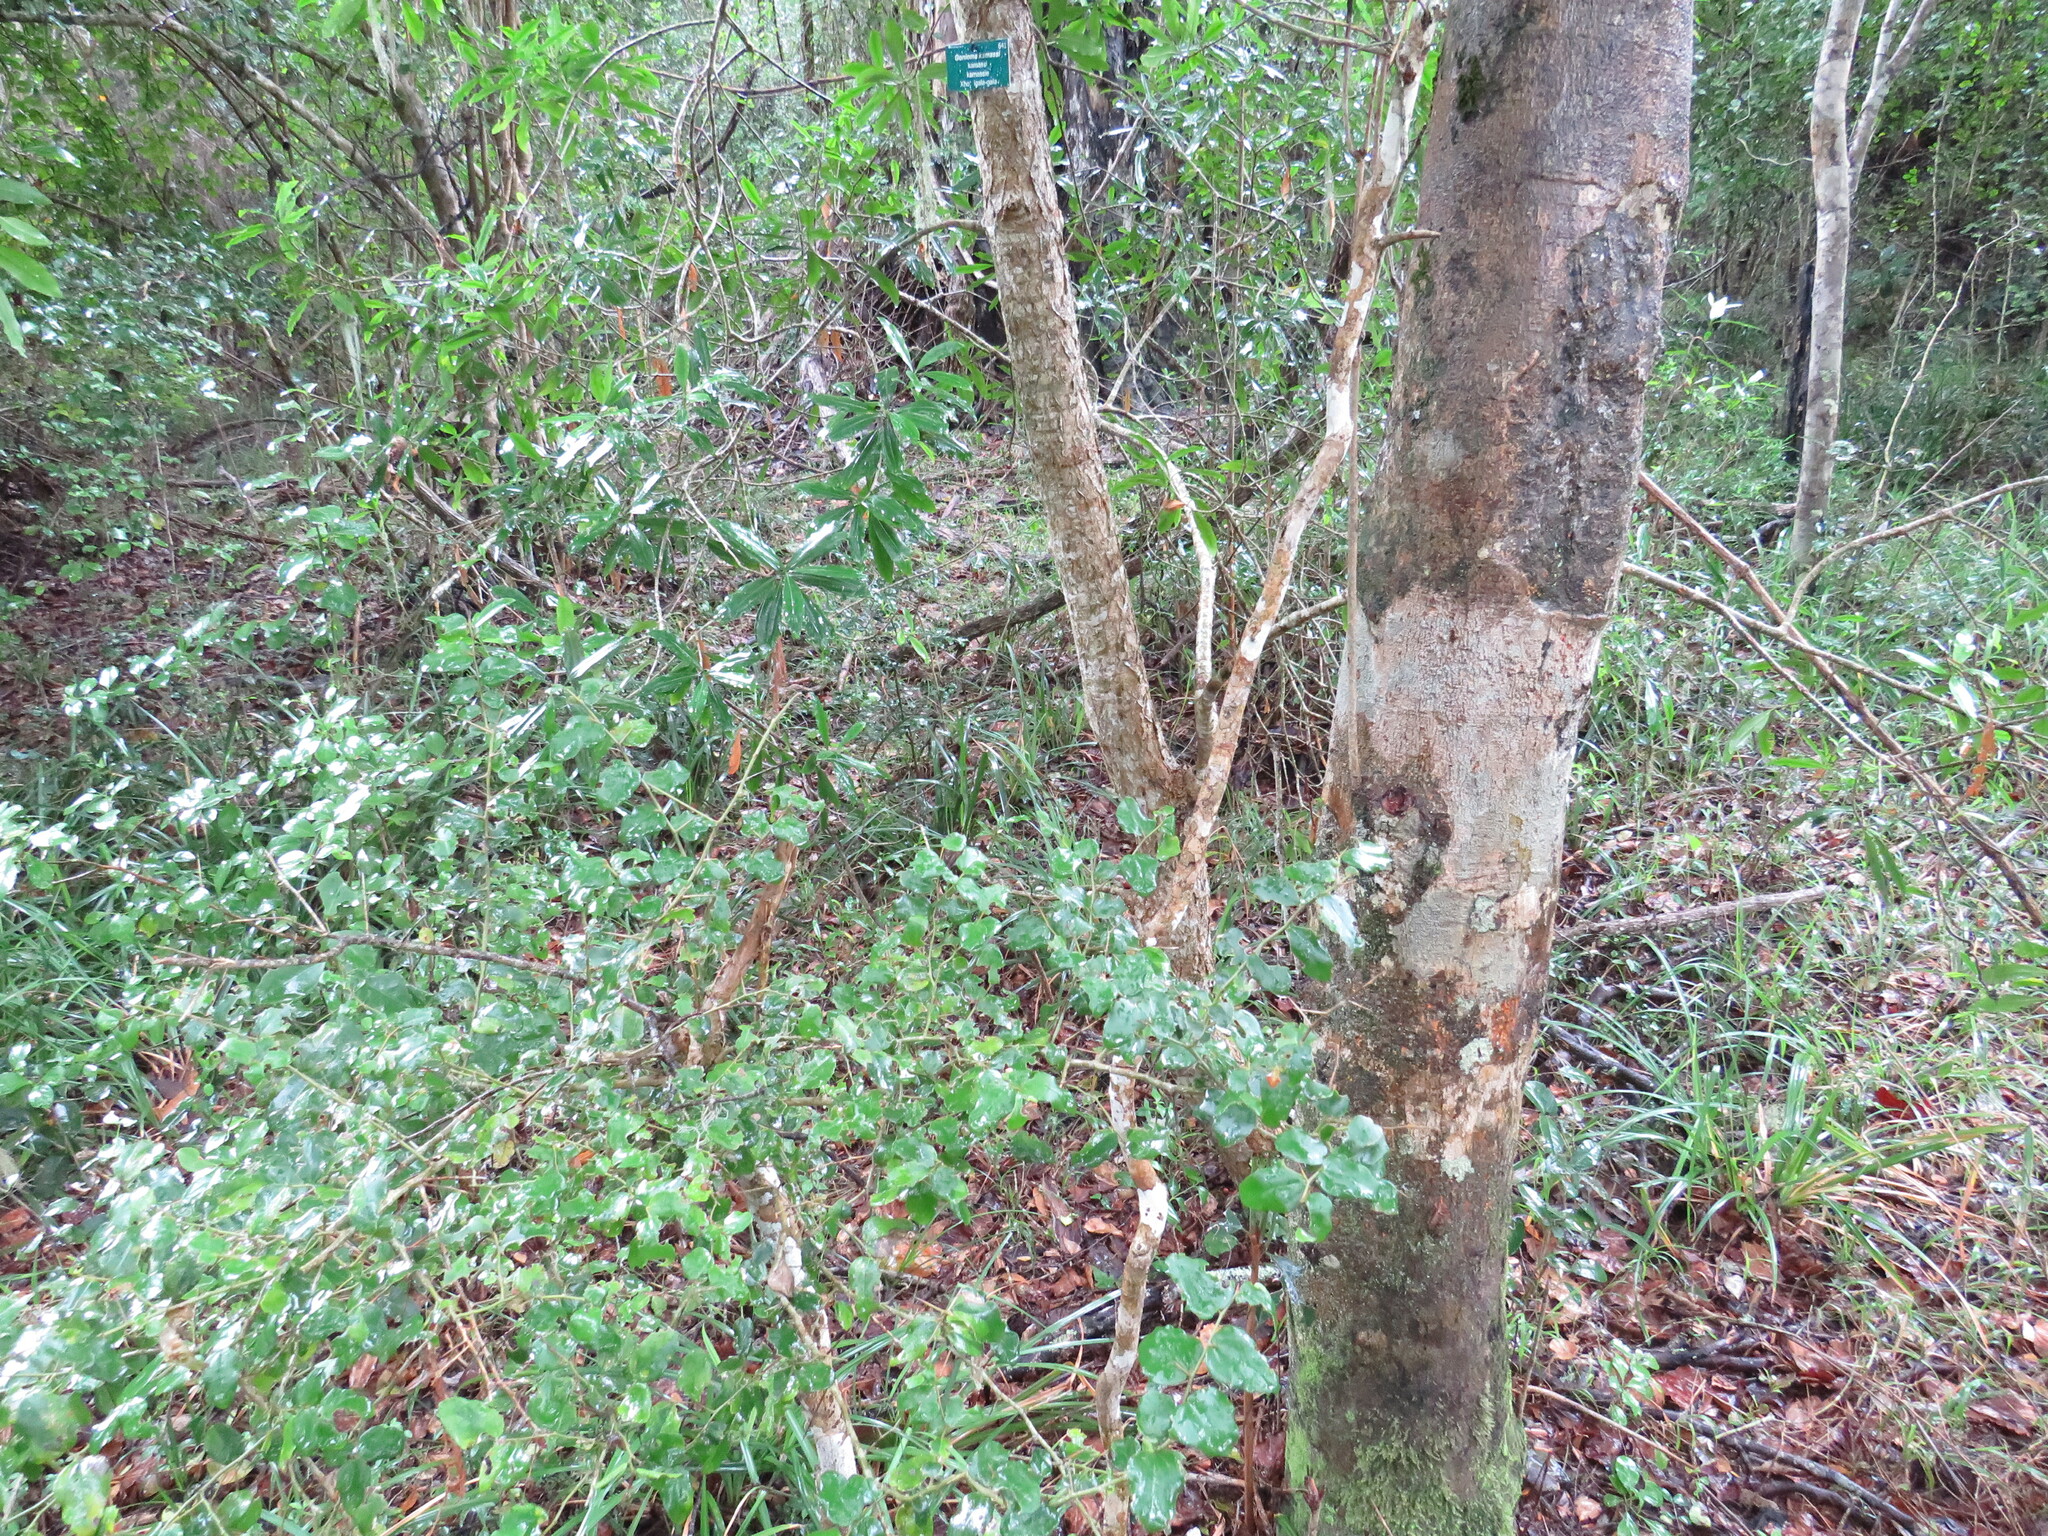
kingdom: Animalia
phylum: Chordata
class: Aves
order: Passeriformes
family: Zosteropidae
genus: Zosterops
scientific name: Zosterops virens
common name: Cape white-eye
